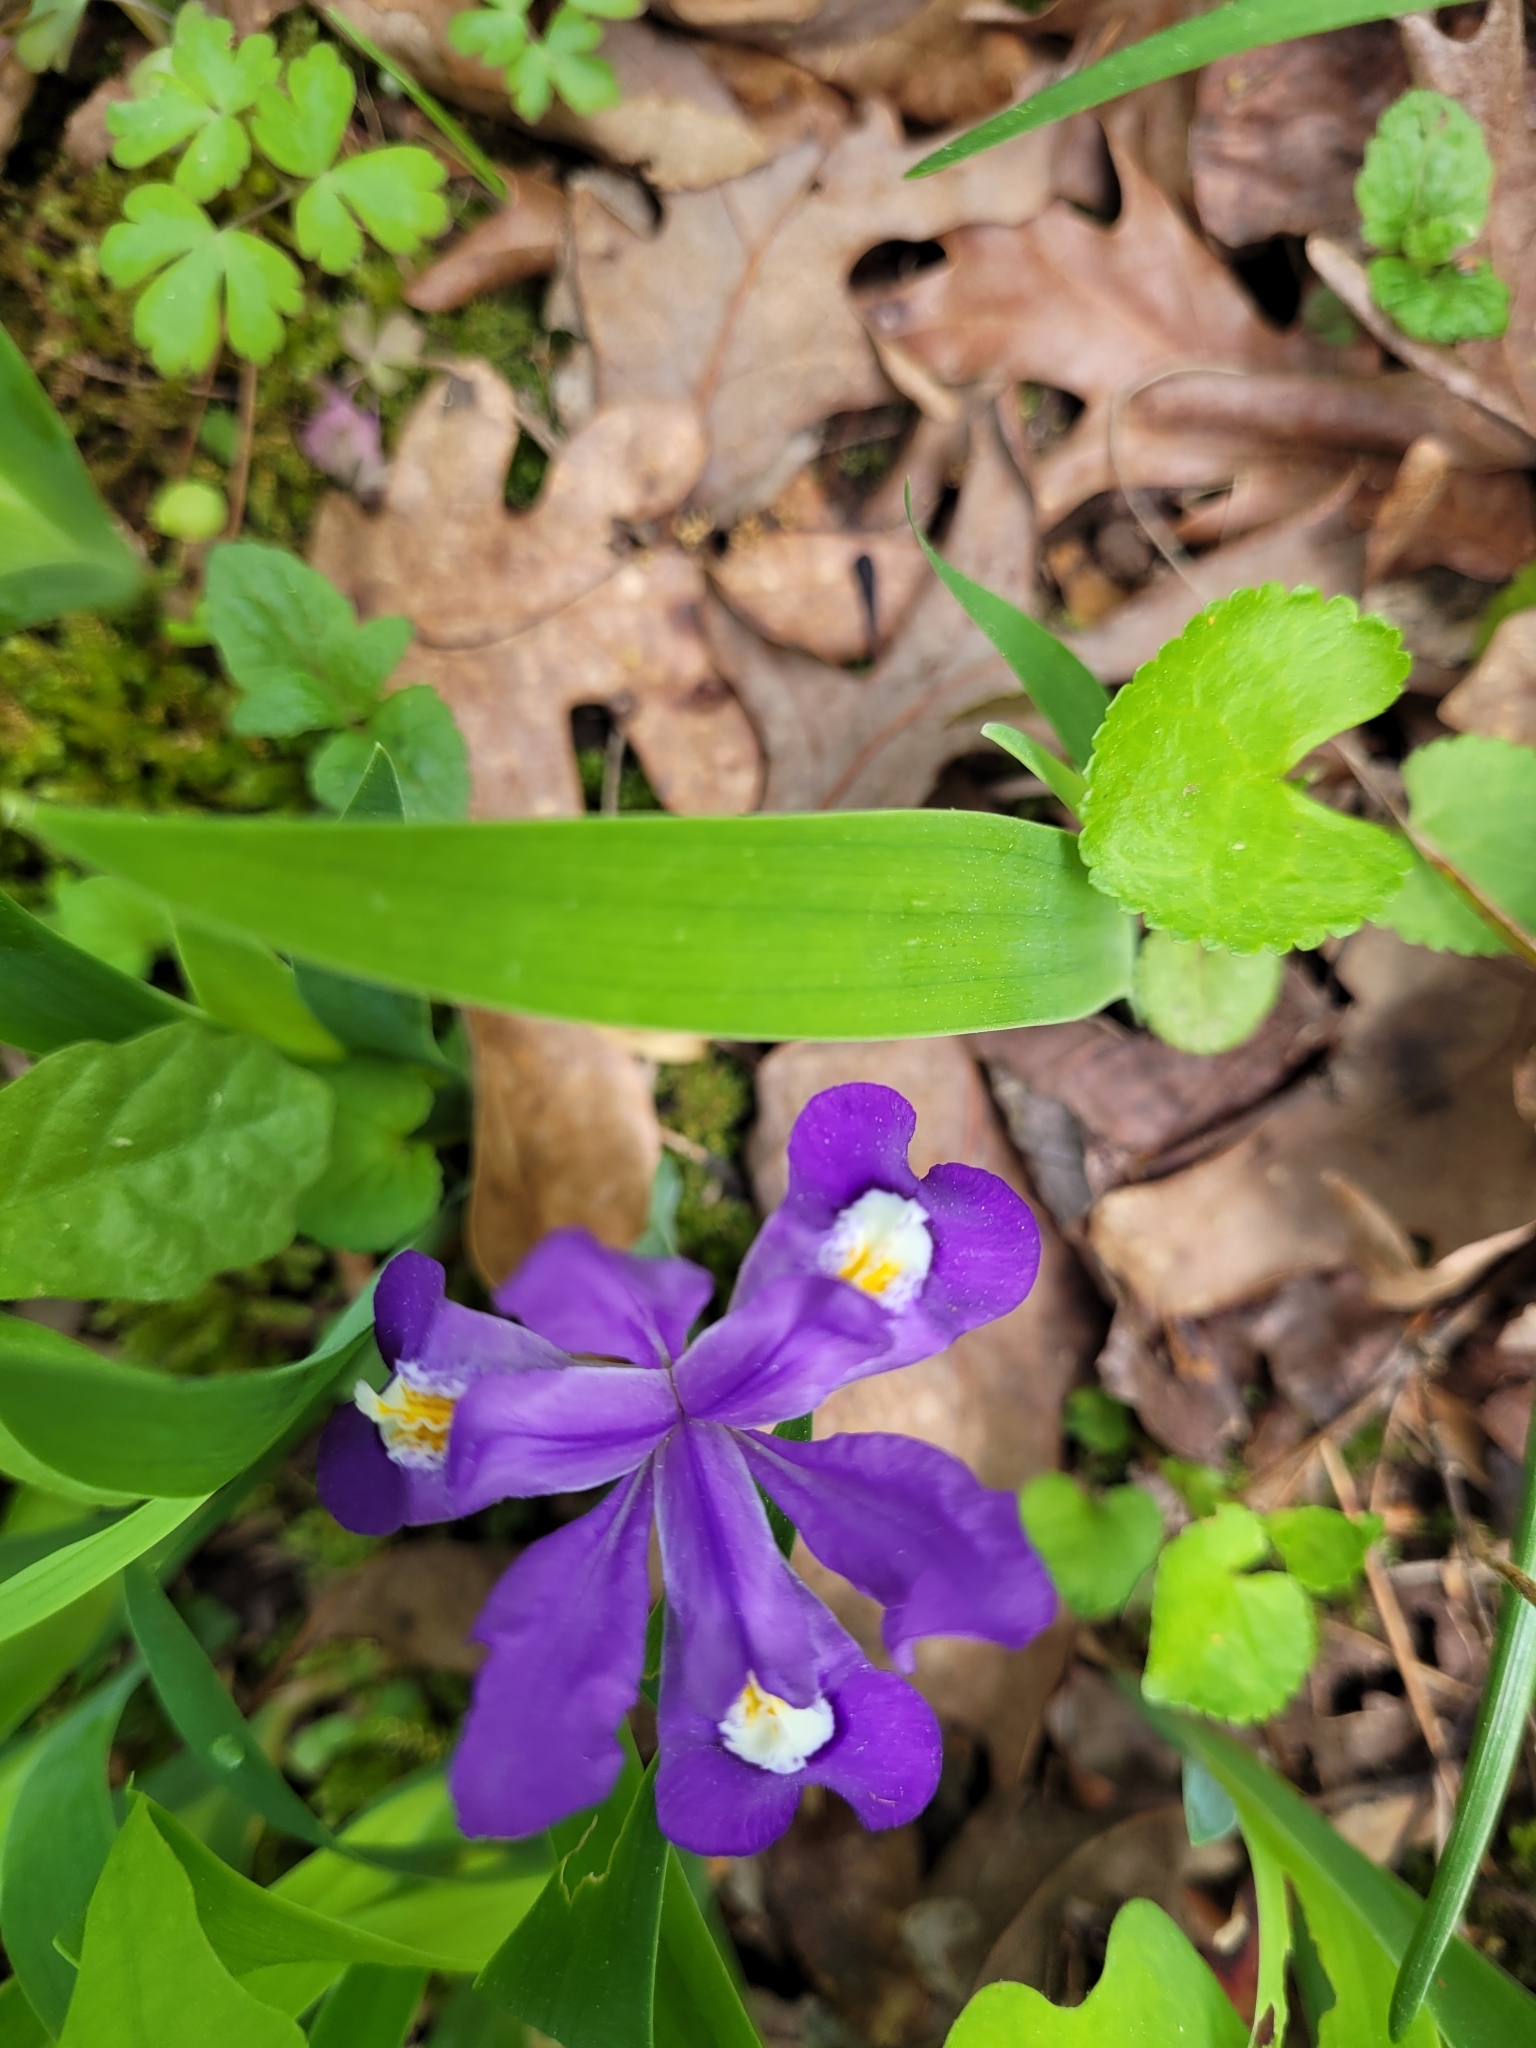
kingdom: Plantae
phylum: Tracheophyta
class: Liliopsida
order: Asparagales
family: Iridaceae
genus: Iris
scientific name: Iris cristata
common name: Crested iris
